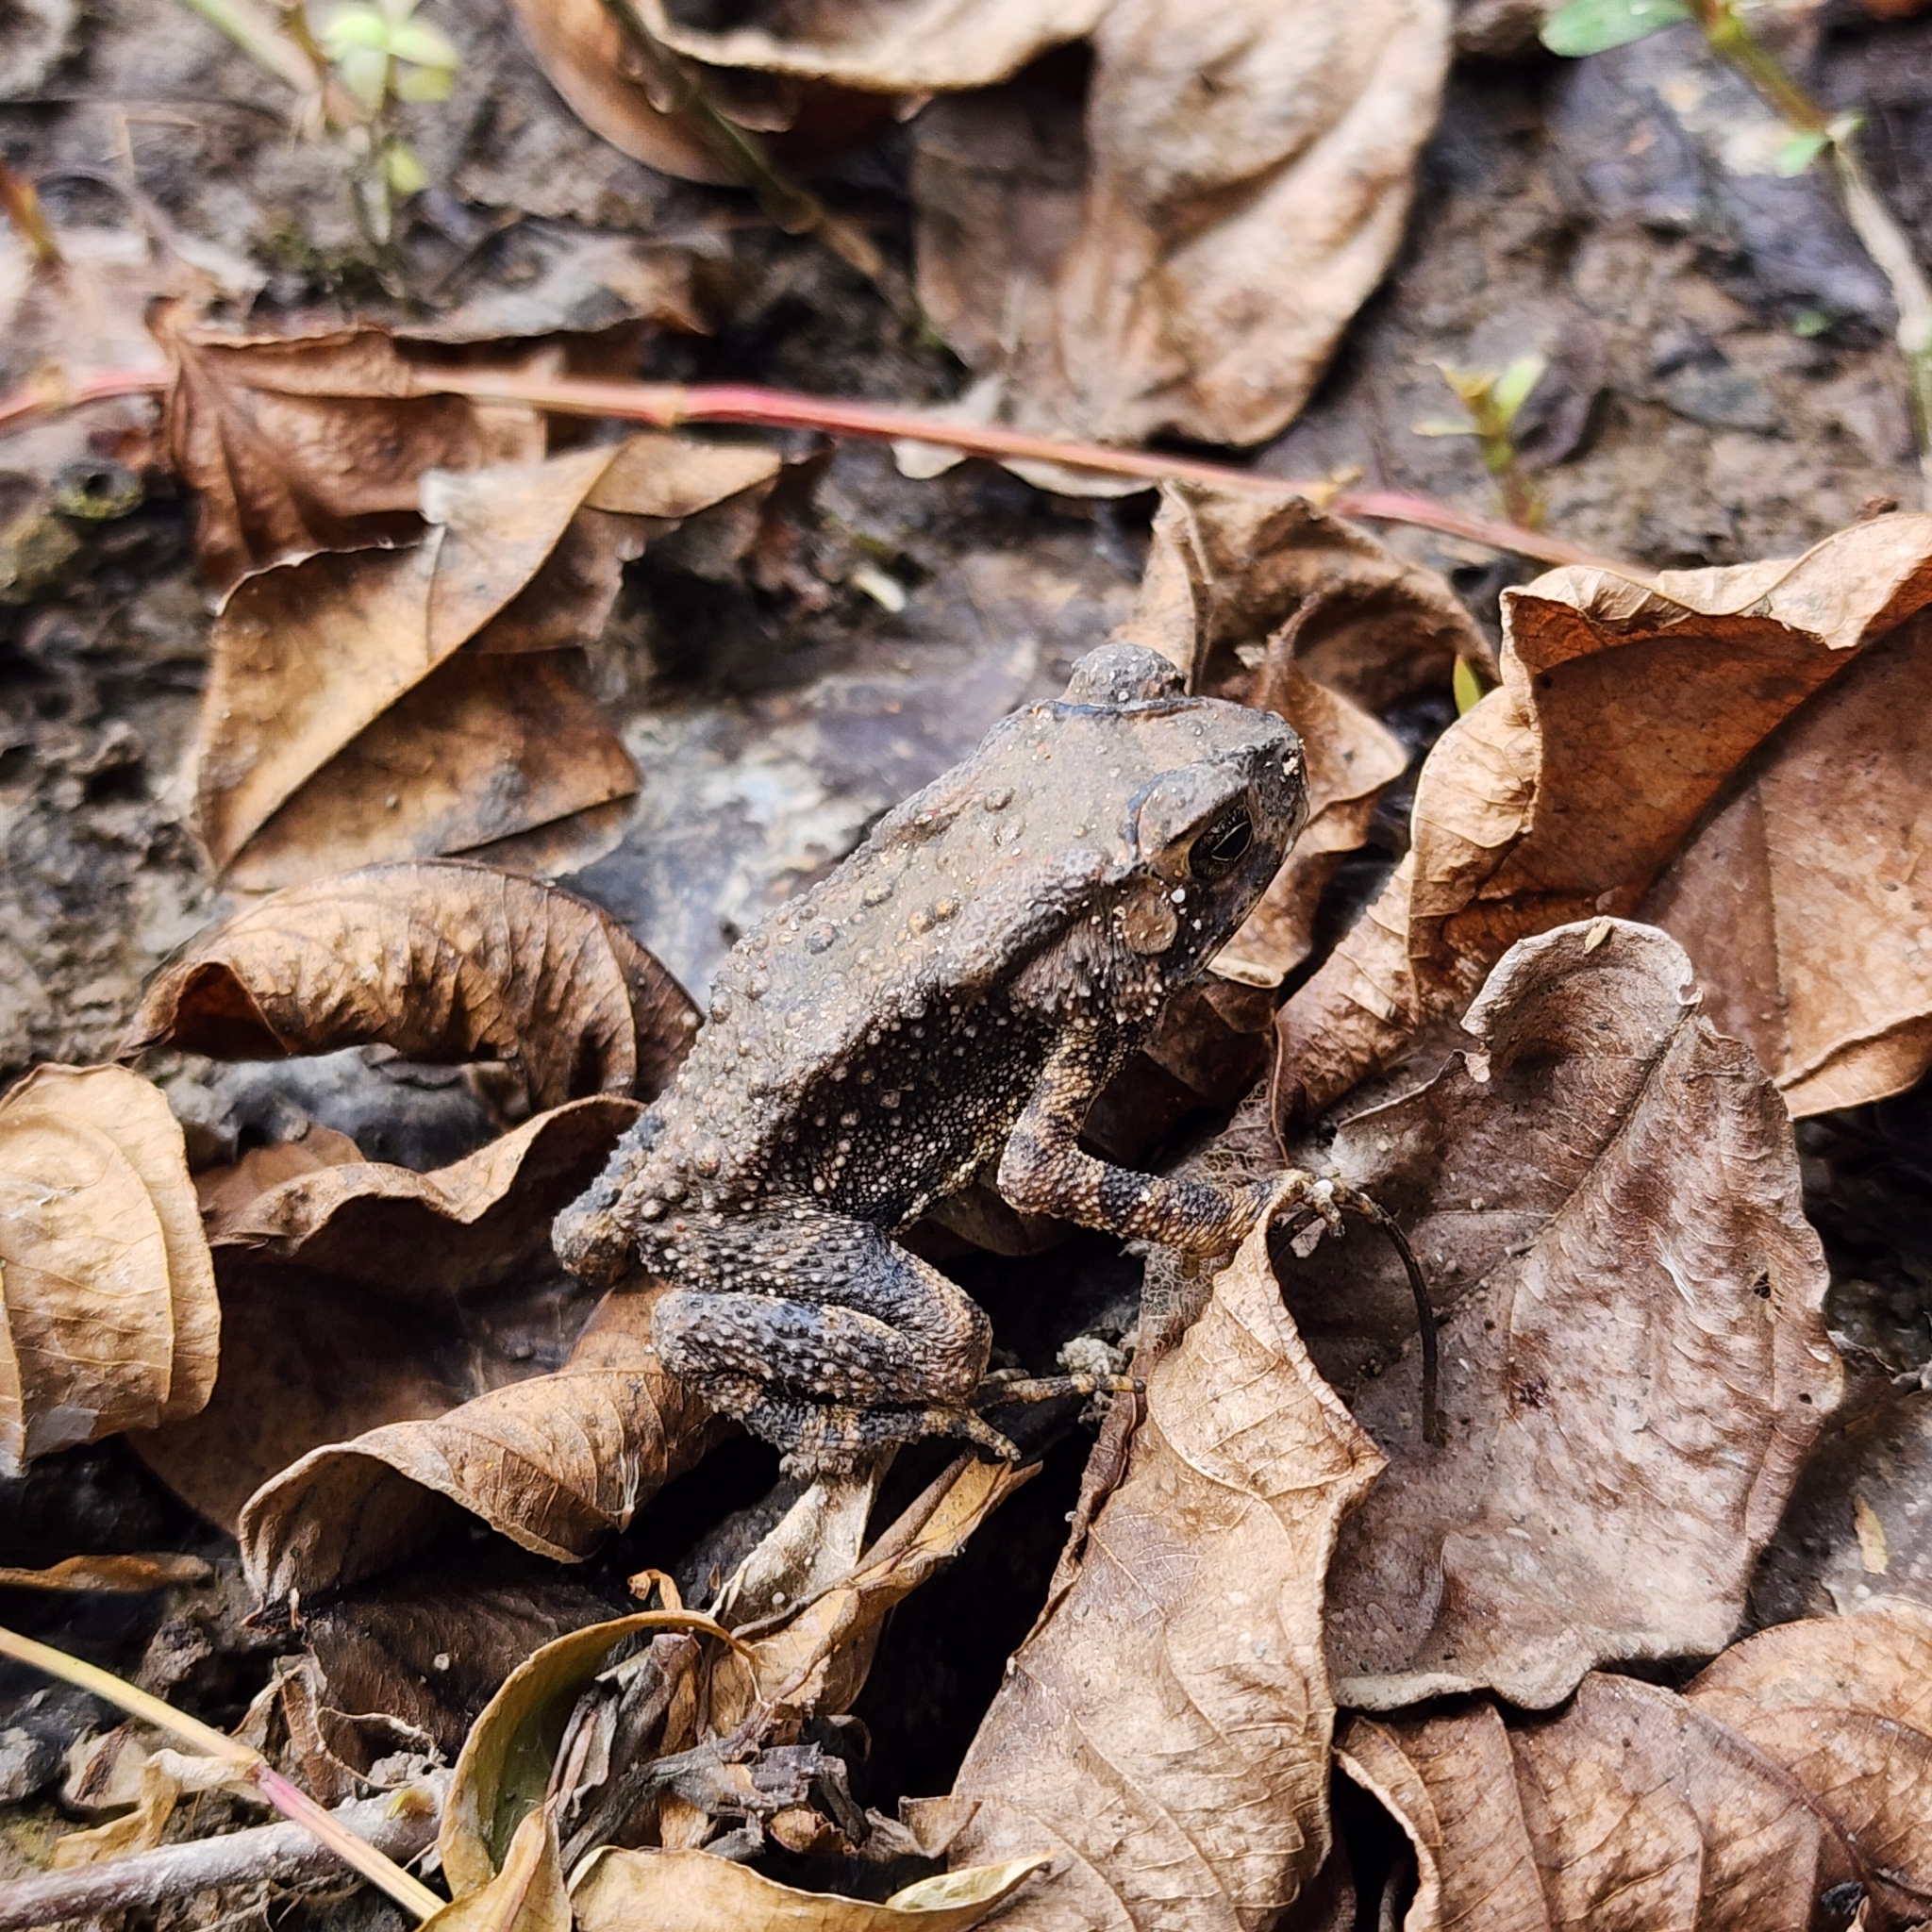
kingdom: Animalia
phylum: Chordata
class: Amphibia
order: Anura
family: Bufonidae
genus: Duttaphrynus
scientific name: Duttaphrynus melanostictus
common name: Common sunda toad
